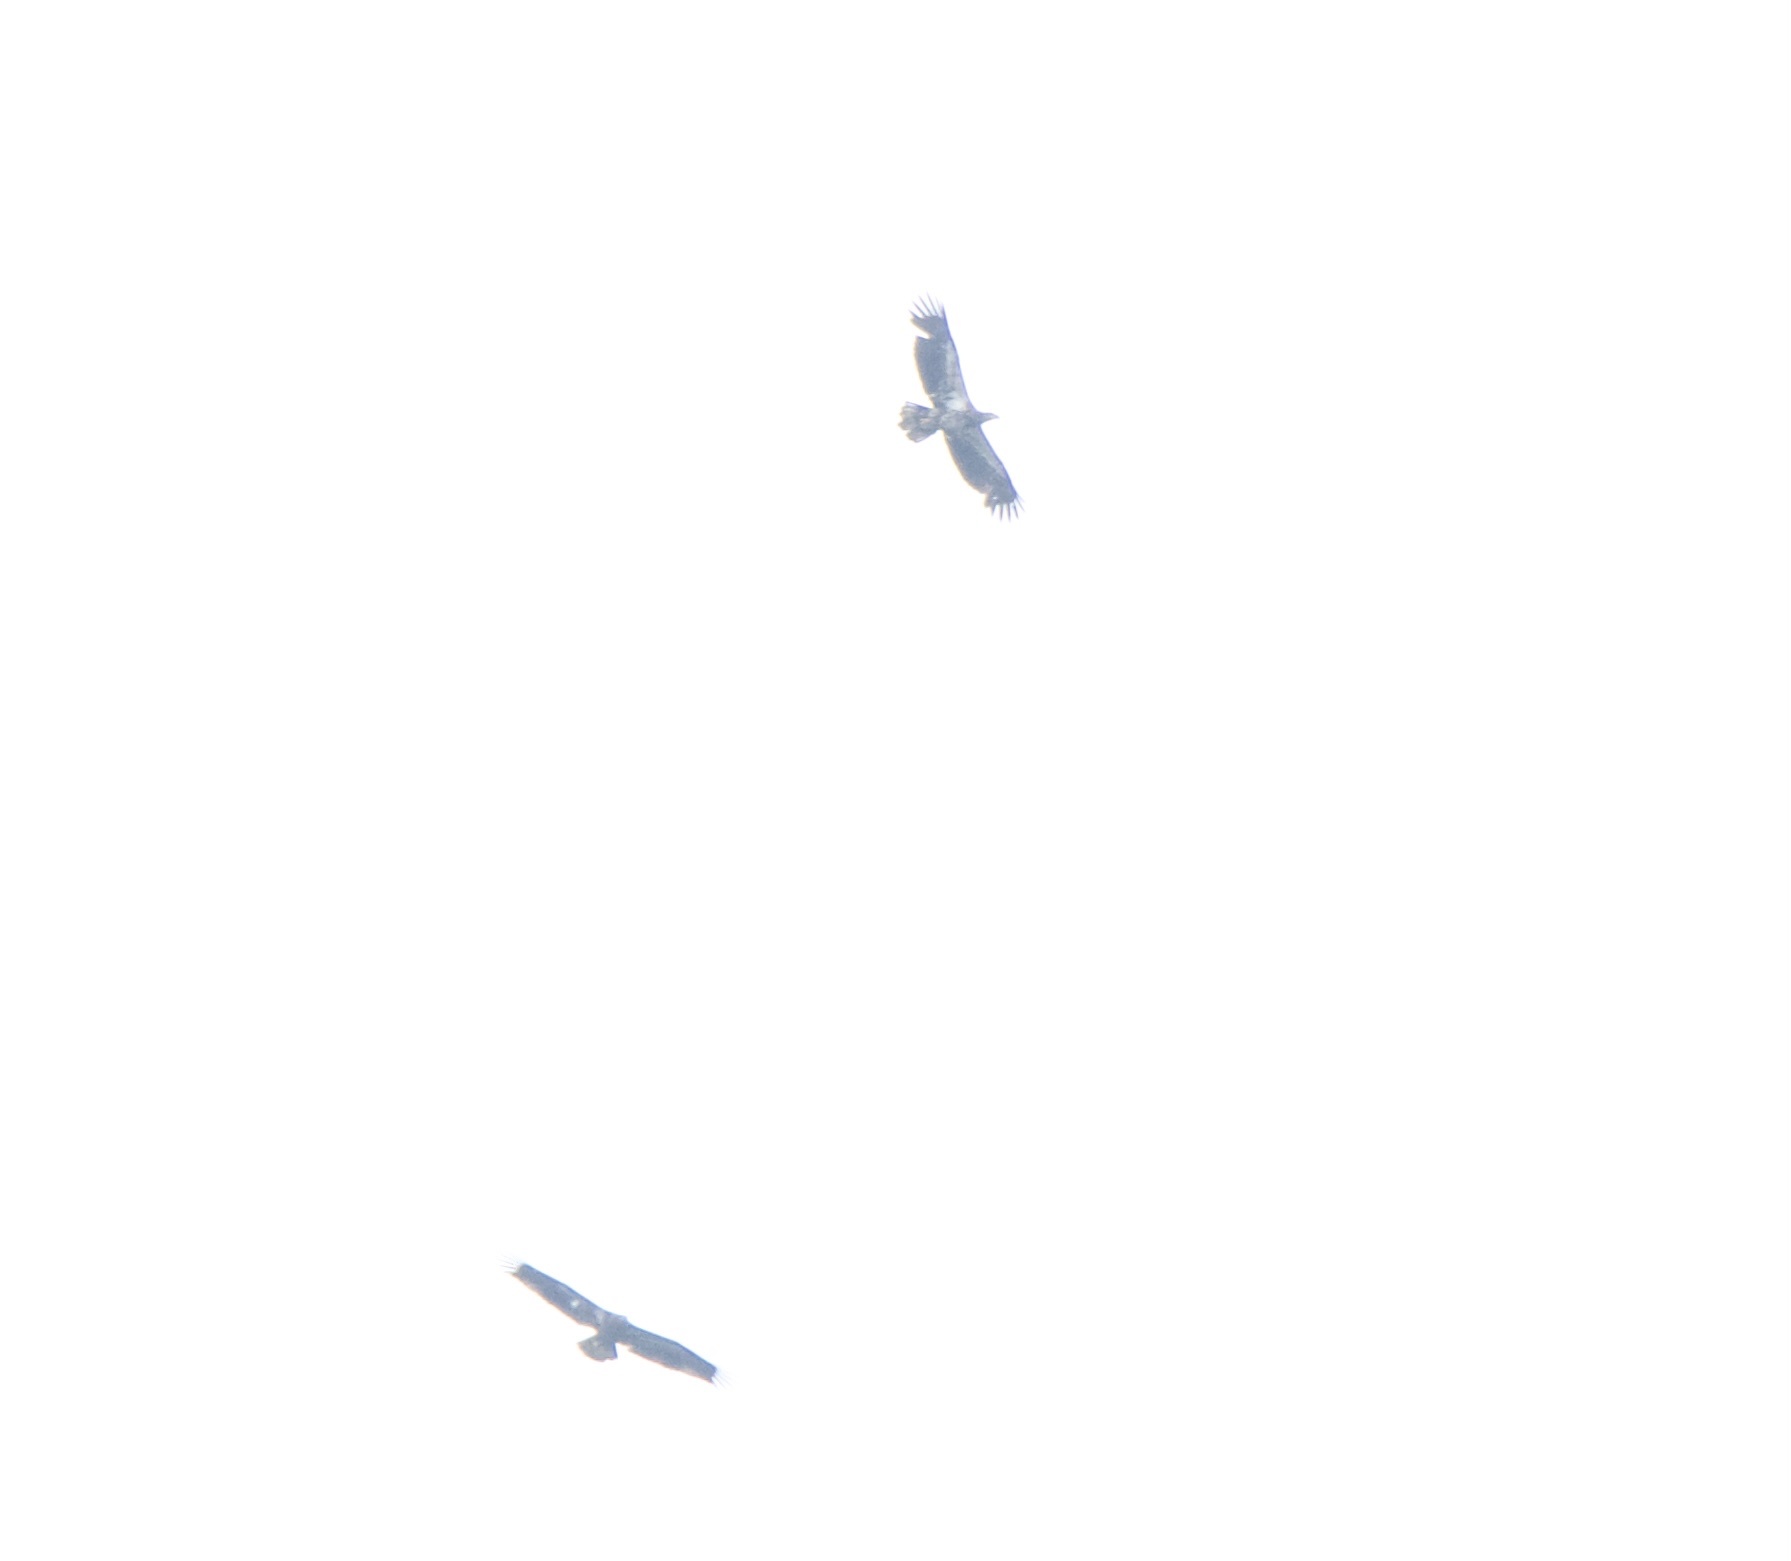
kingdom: Animalia
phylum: Chordata
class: Aves
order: Accipitriformes
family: Accipitridae
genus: Haliaeetus
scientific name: Haliaeetus leucocephalus
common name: Bald eagle
